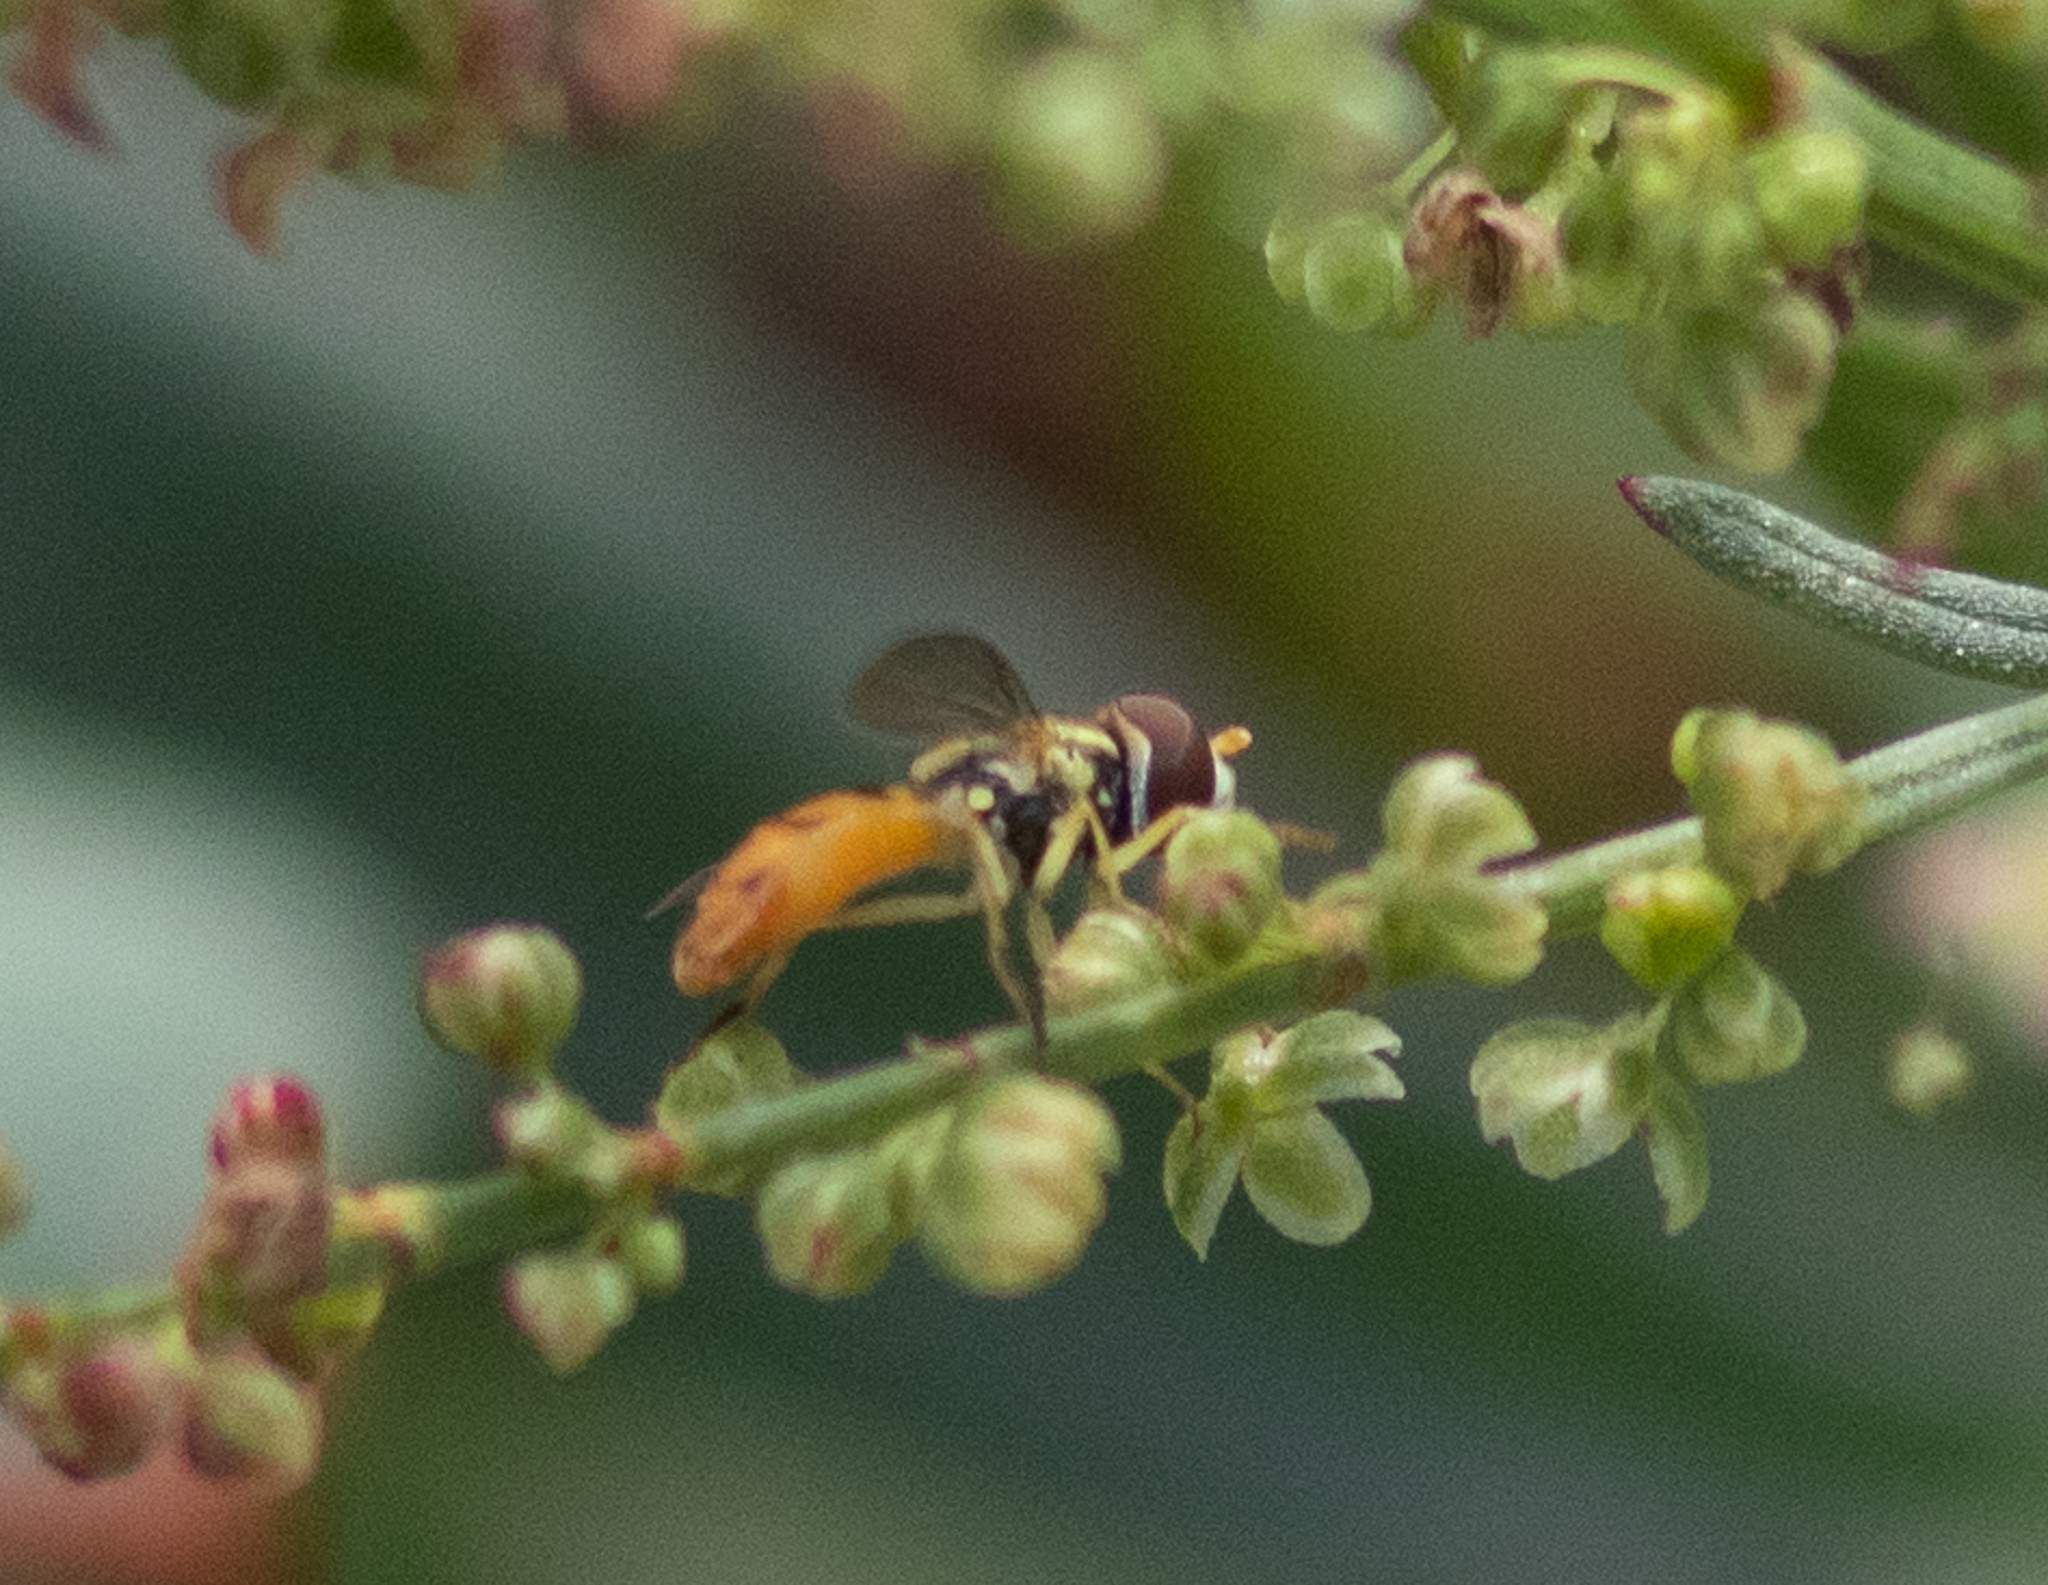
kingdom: Animalia
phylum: Arthropoda
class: Insecta
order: Diptera
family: Syrphidae
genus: Toxomerus
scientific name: Toxomerus marginatus
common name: Syrphid fly
